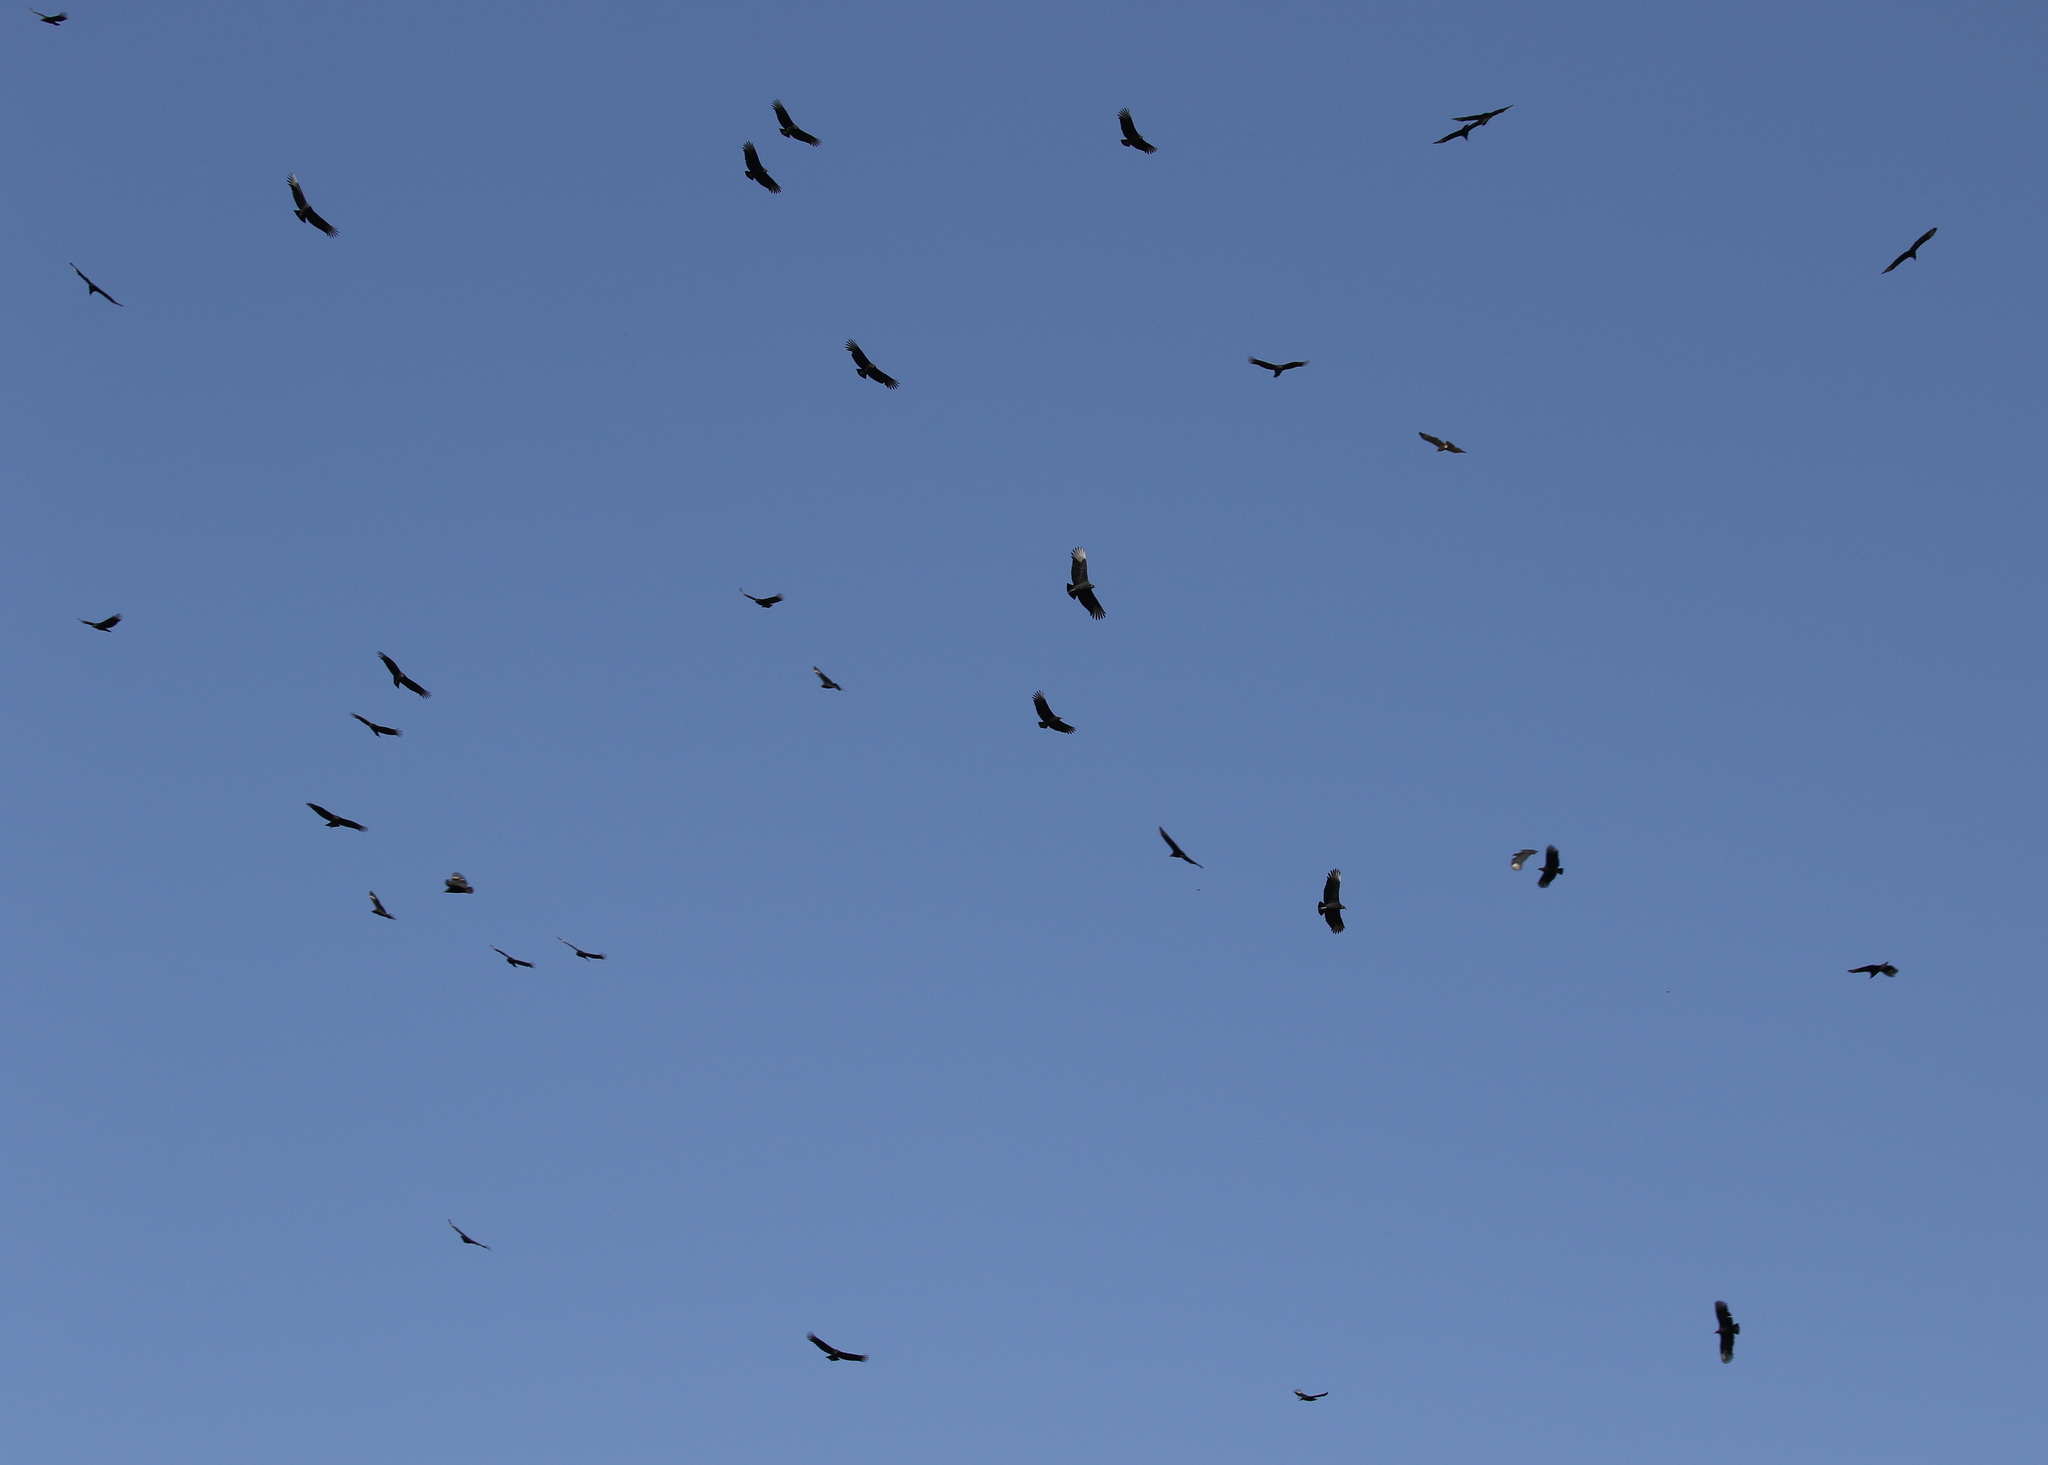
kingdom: Animalia
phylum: Chordata
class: Aves
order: Accipitriformes
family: Cathartidae
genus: Coragyps
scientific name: Coragyps atratus
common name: Black vulture
